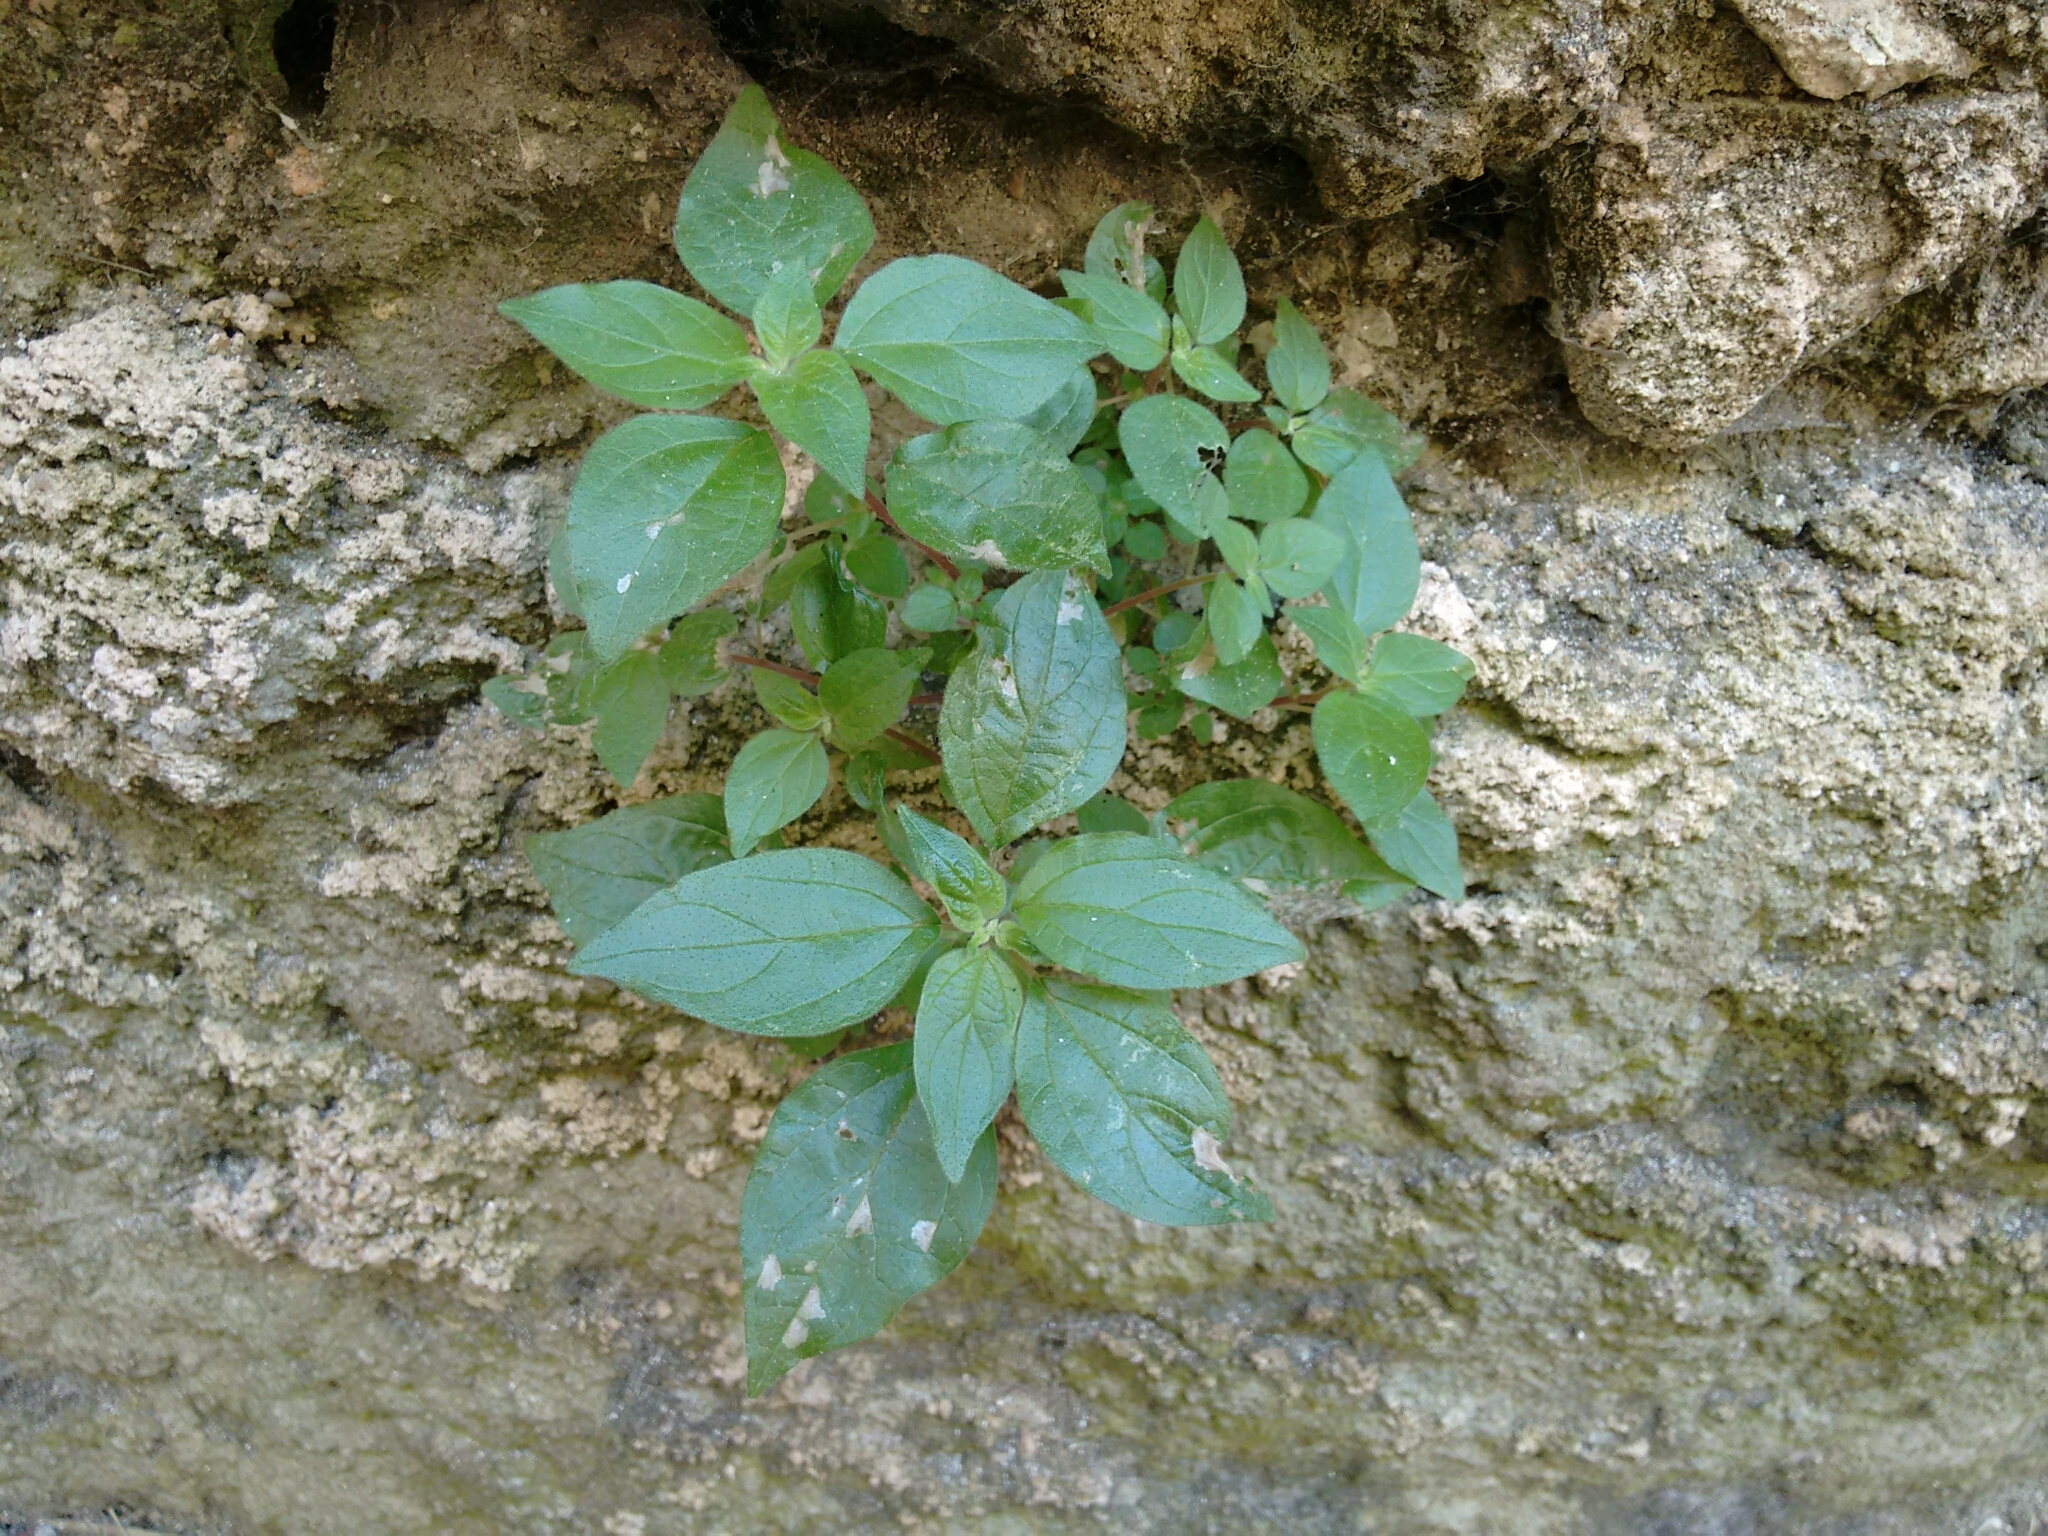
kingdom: Plantae
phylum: Tracheophyta
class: Magnoliopsida
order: Rosales
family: Urticaceae
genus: Parietaria
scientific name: Parietaria judaica
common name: Pellitory-of-the-wall
